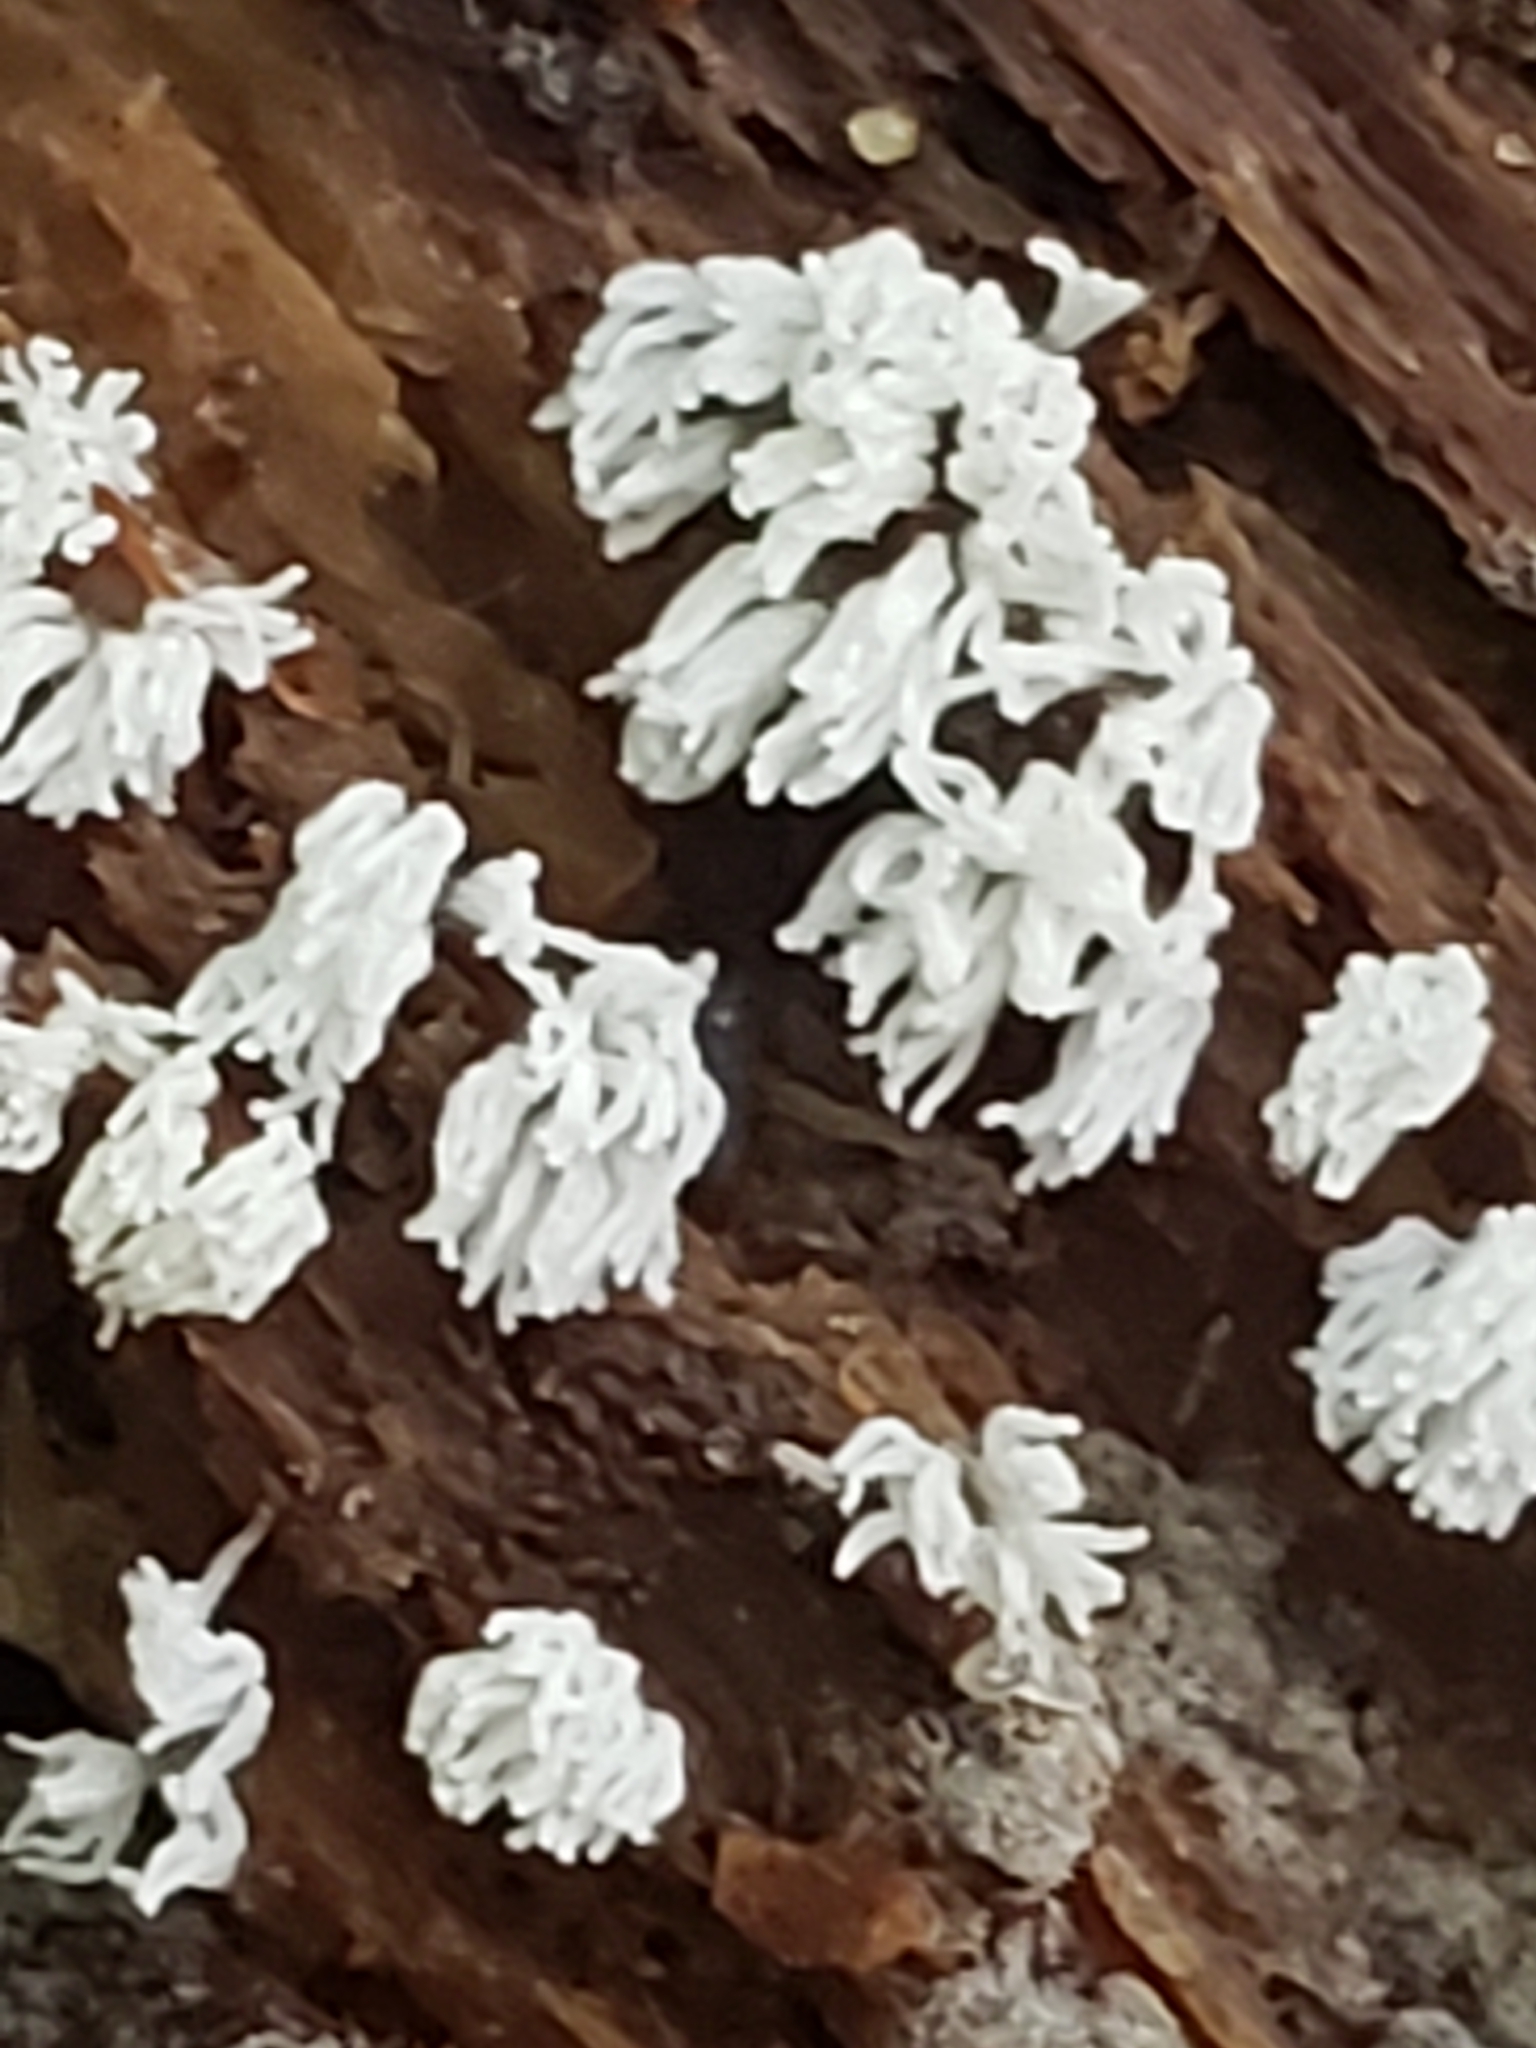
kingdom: Protozoa
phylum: Mycetozoa
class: Protosteliomycetes
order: Ceratiomyxales
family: Ceratiomyxaceae
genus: Ceratiomyxa
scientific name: Ceratiomyxa fruticulosa
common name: Honeycomb coral slime mold
